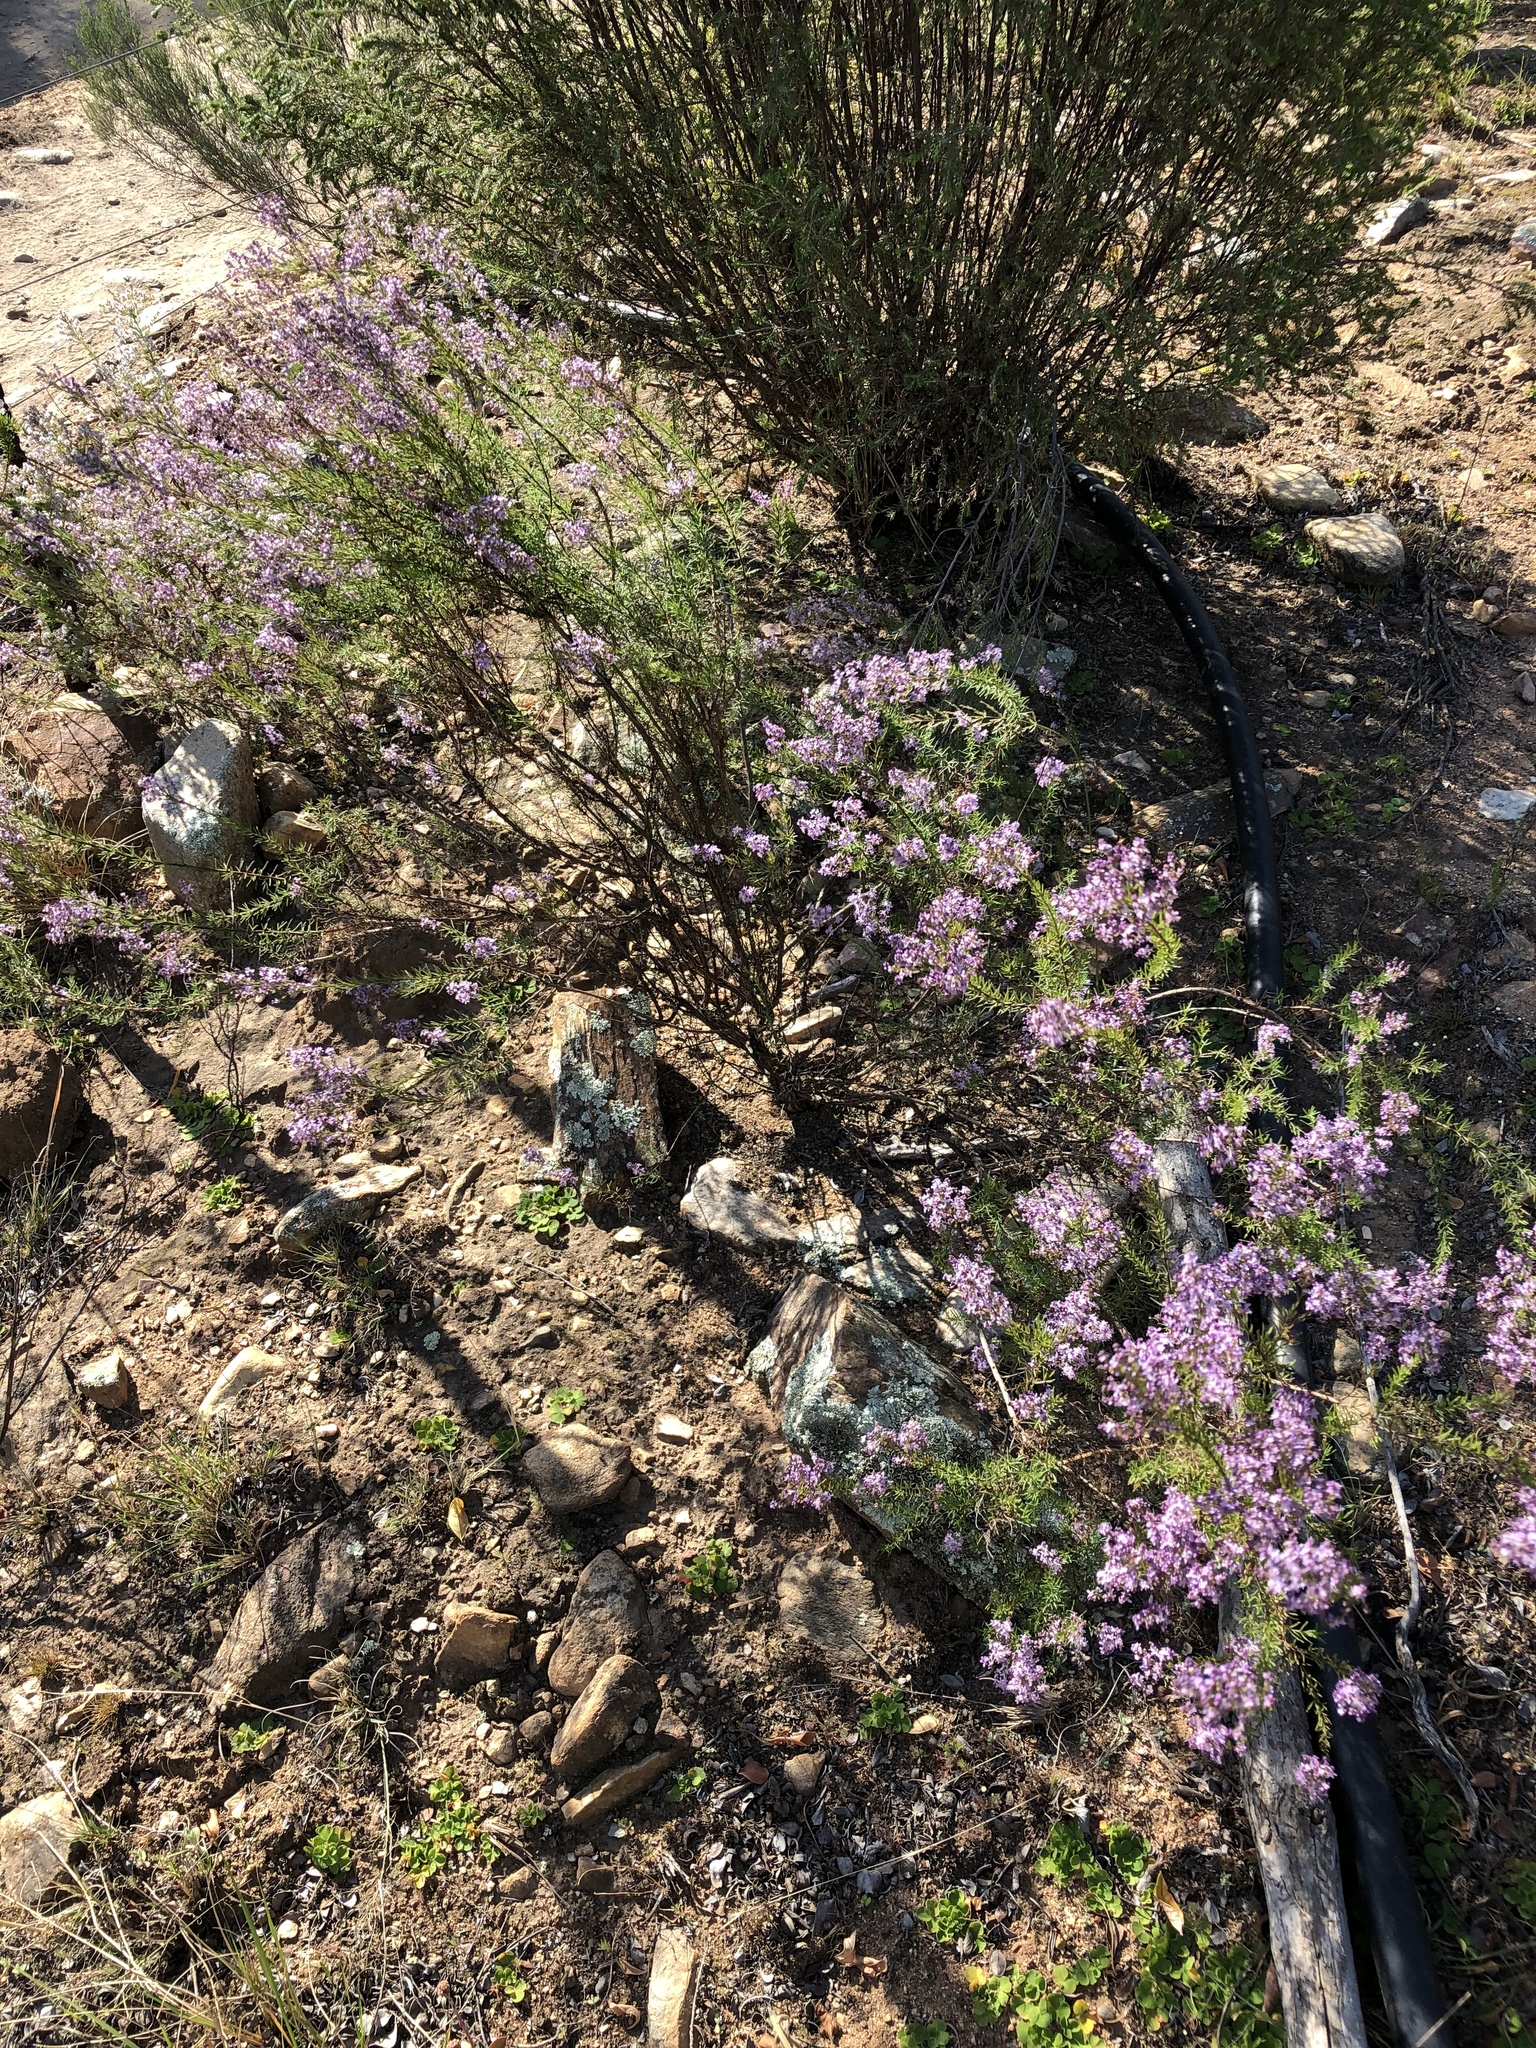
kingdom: Plantae
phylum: Tracheophyta
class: Magnoliopsida
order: Lamiales
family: Scrophulariaceae
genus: Selago
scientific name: Selago lilacina
